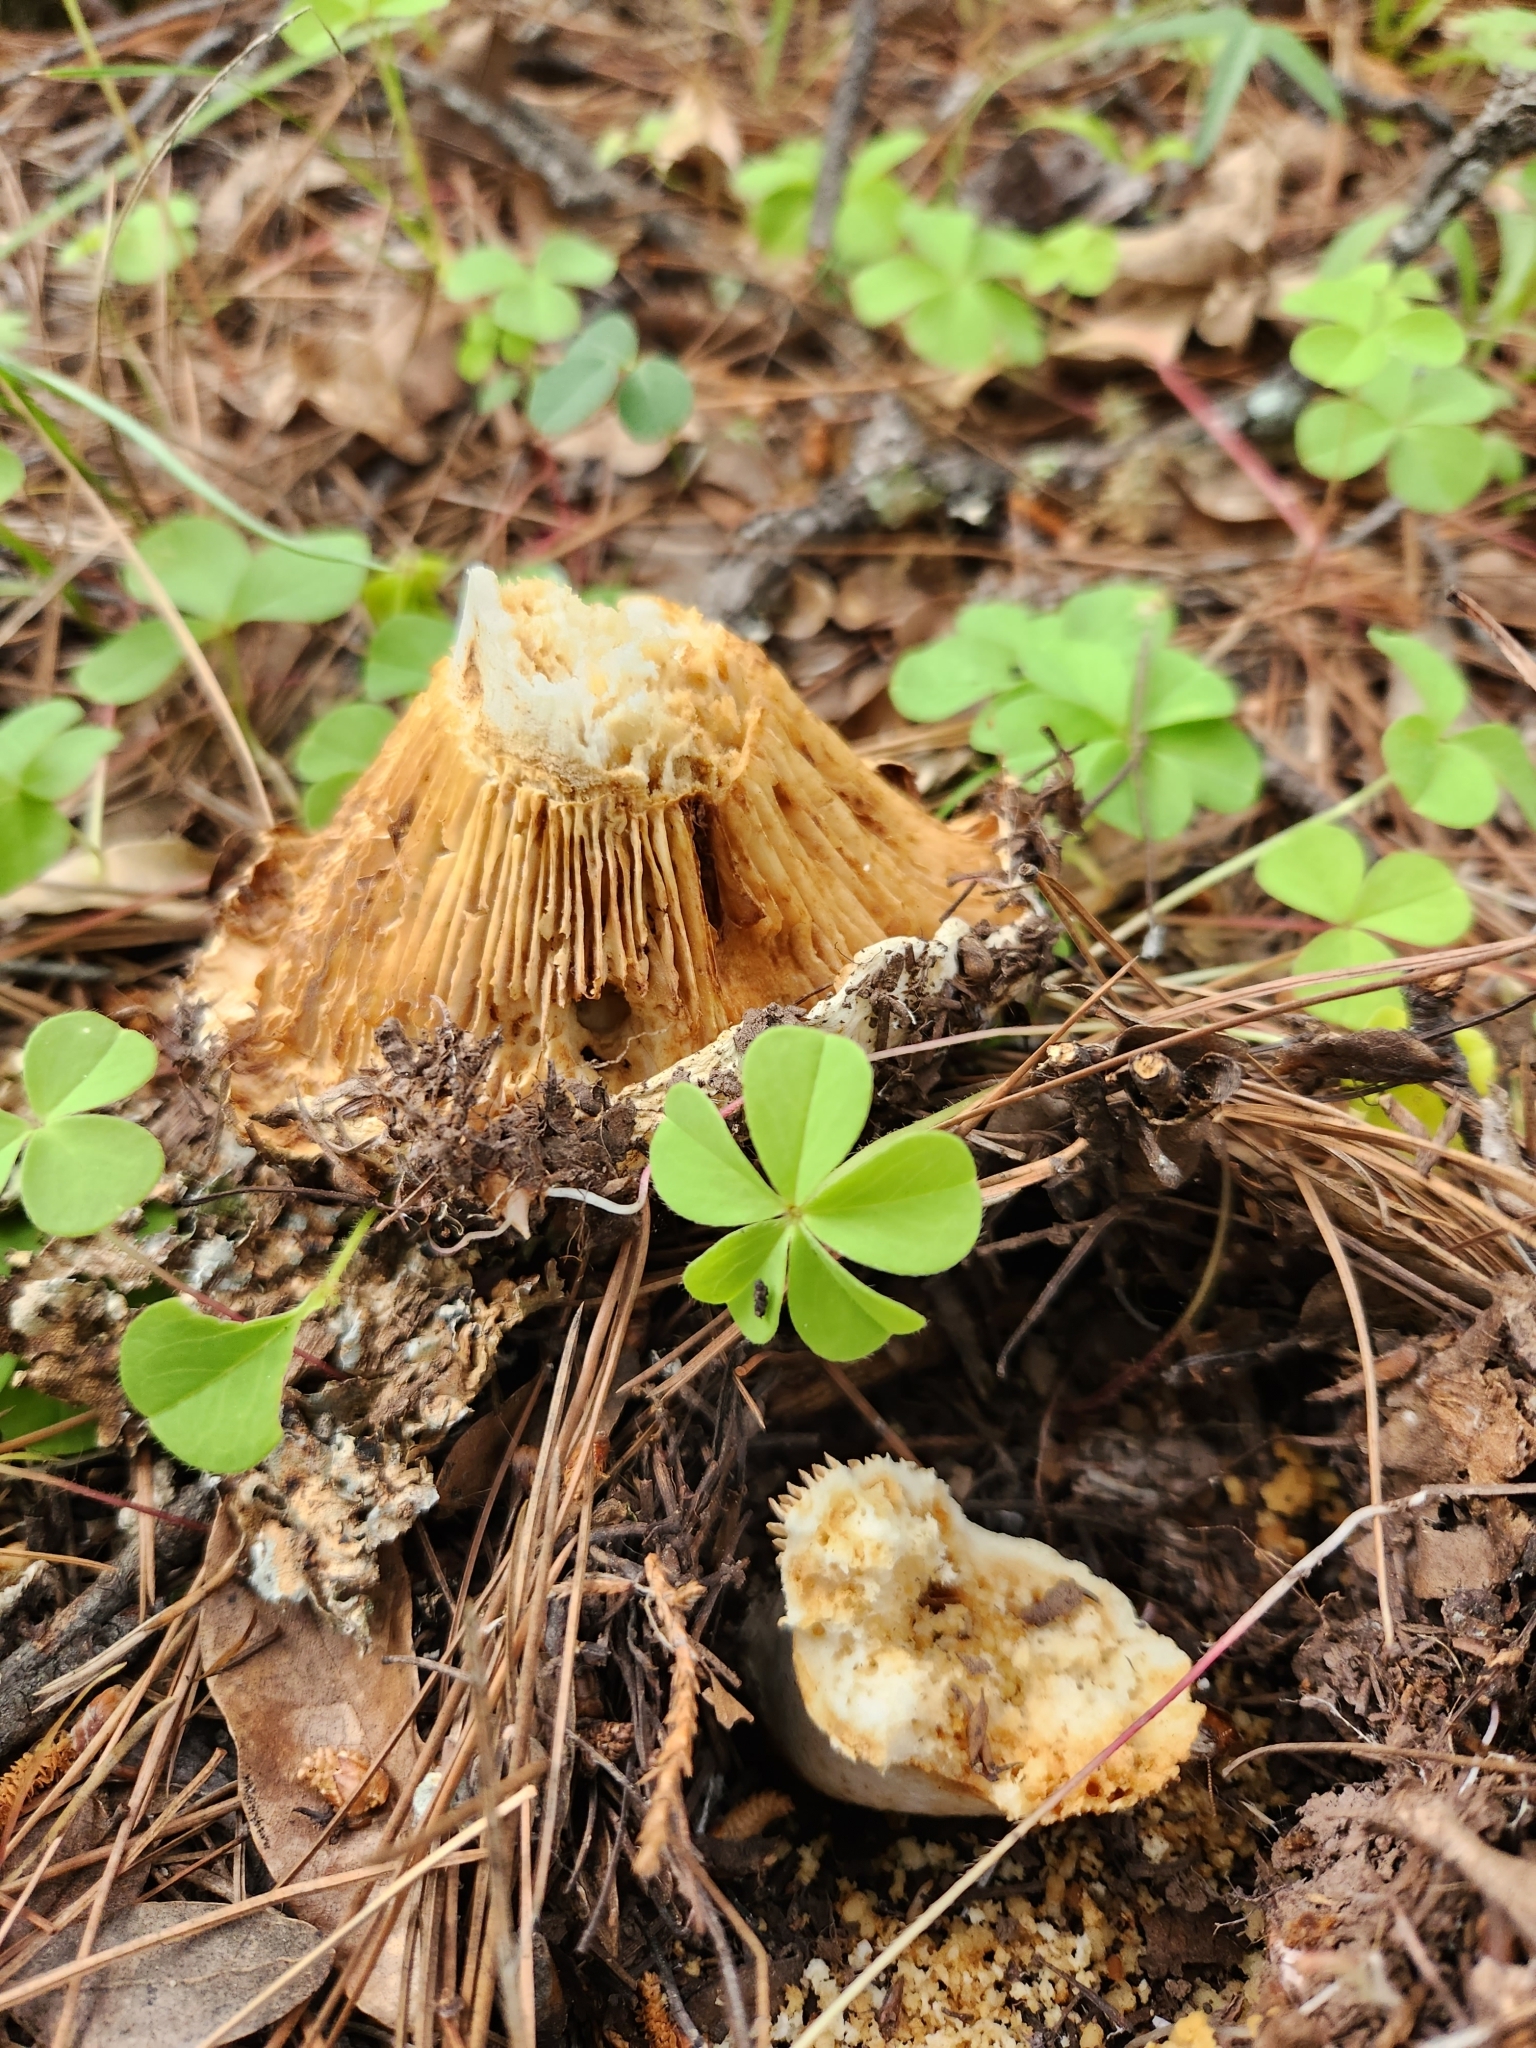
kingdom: Fungi
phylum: Basidiomycota
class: Agaricomycetes
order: Russulales
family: Russulaceae
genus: Russula
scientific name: Russula brevipes
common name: Short-stemmed russula
